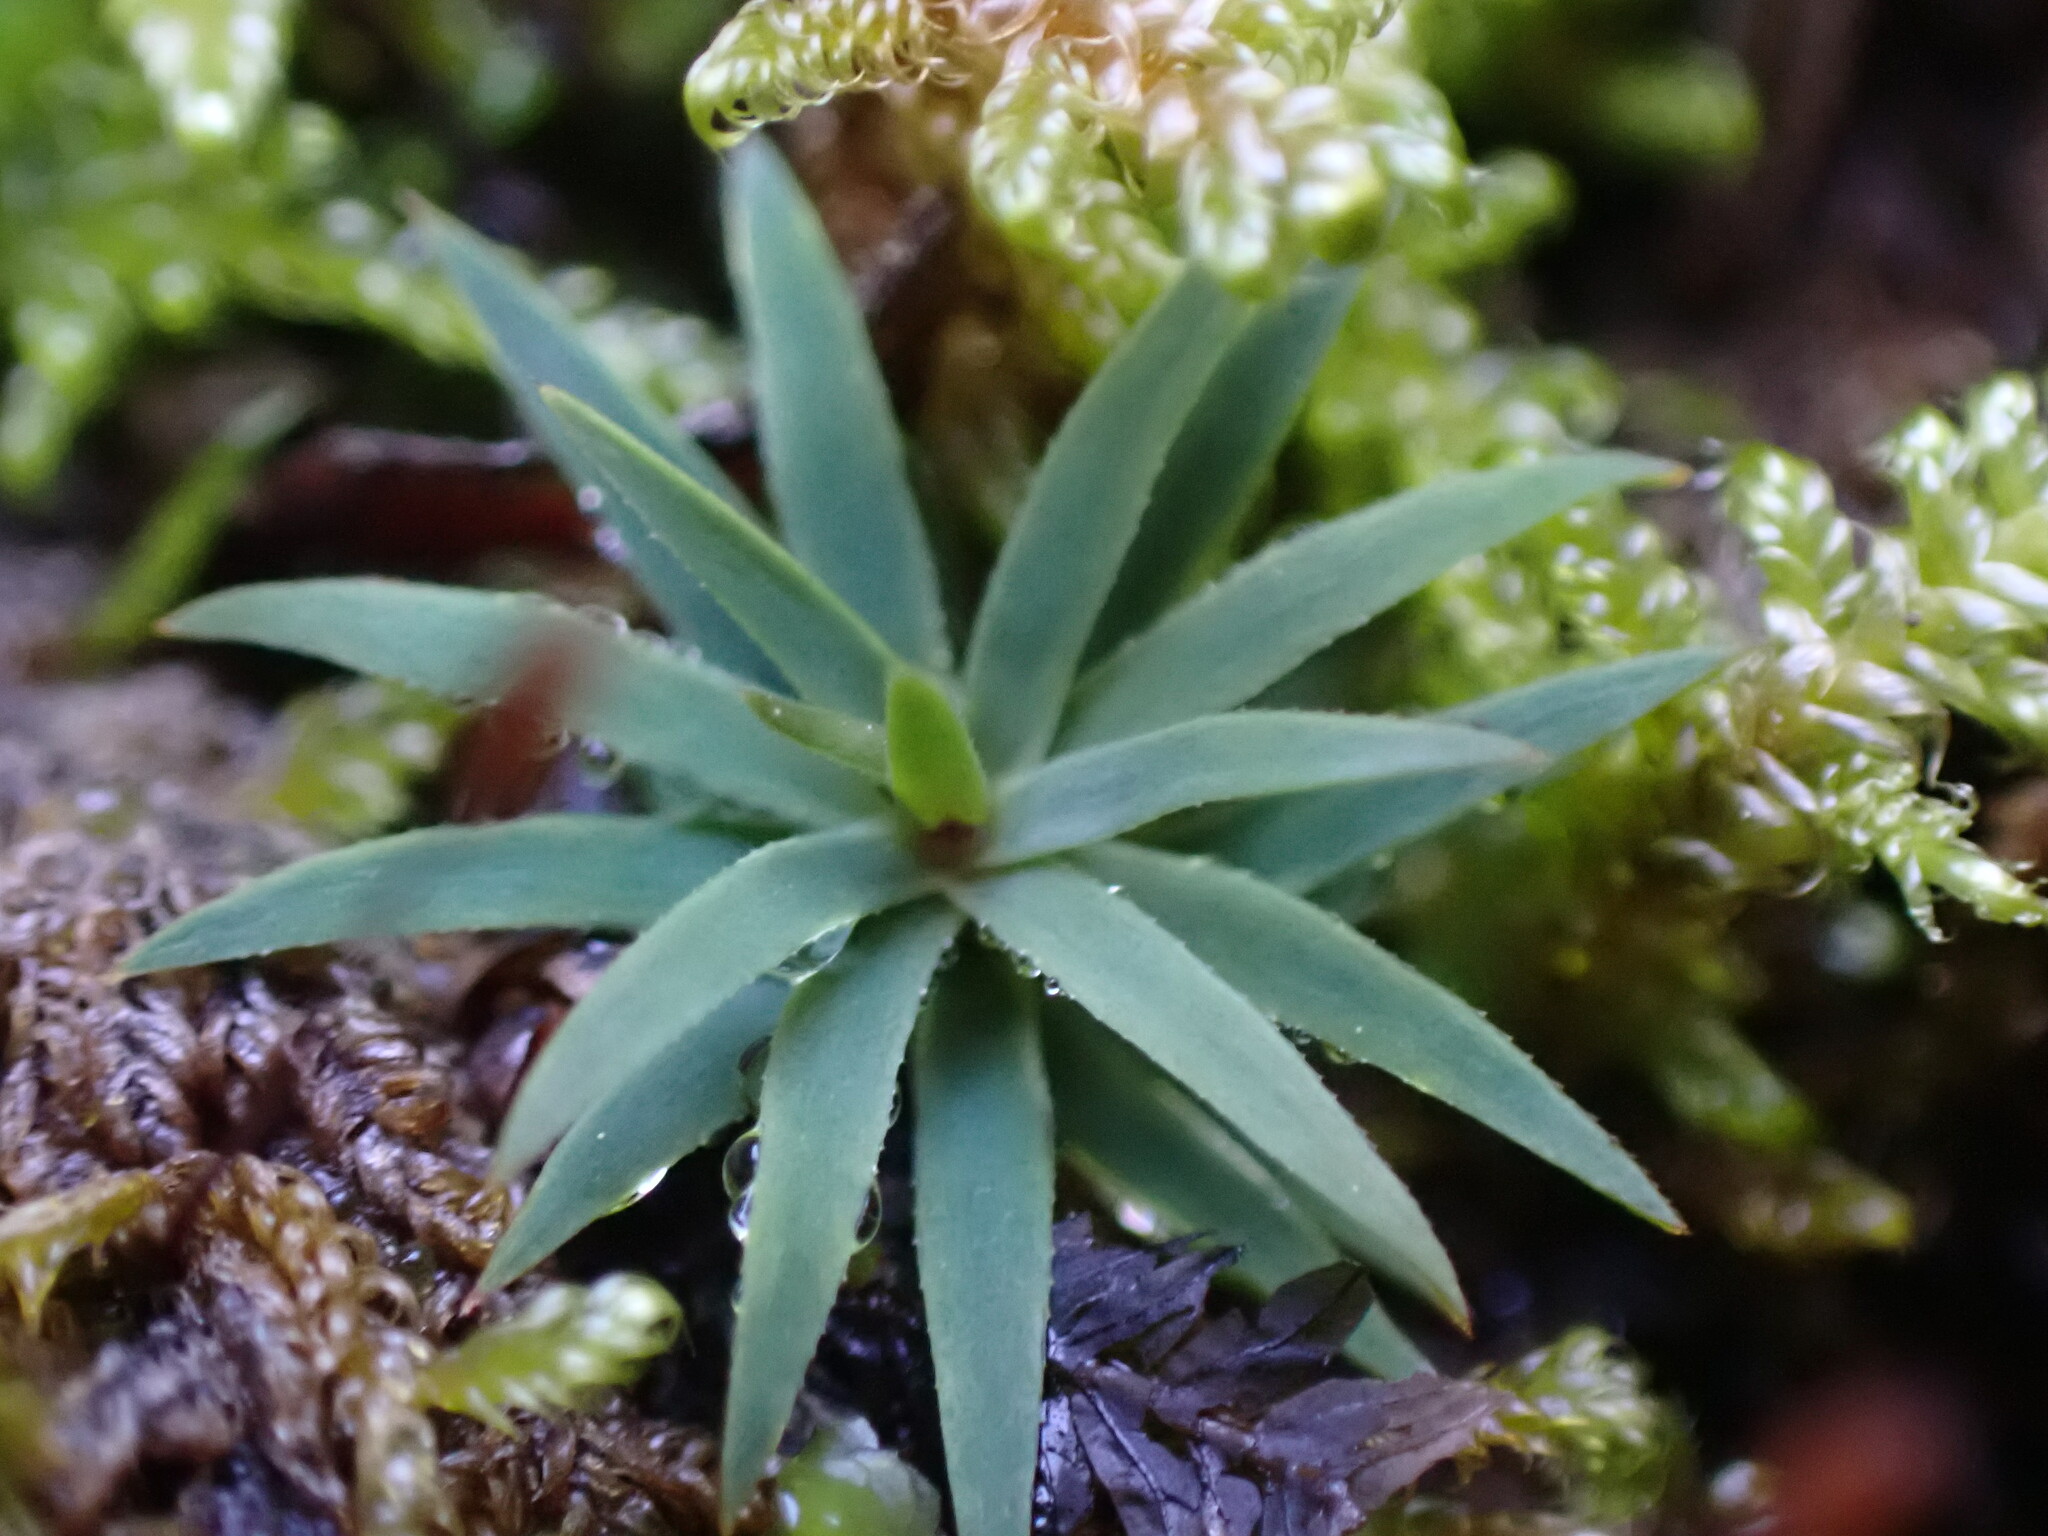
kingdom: Plantae
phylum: Bryophyta
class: Polytrichopsida
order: Polytrichales
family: Polytrichaceae
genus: Pogonatum
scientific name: Pogonatum urnigerum
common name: Urn hair moss
